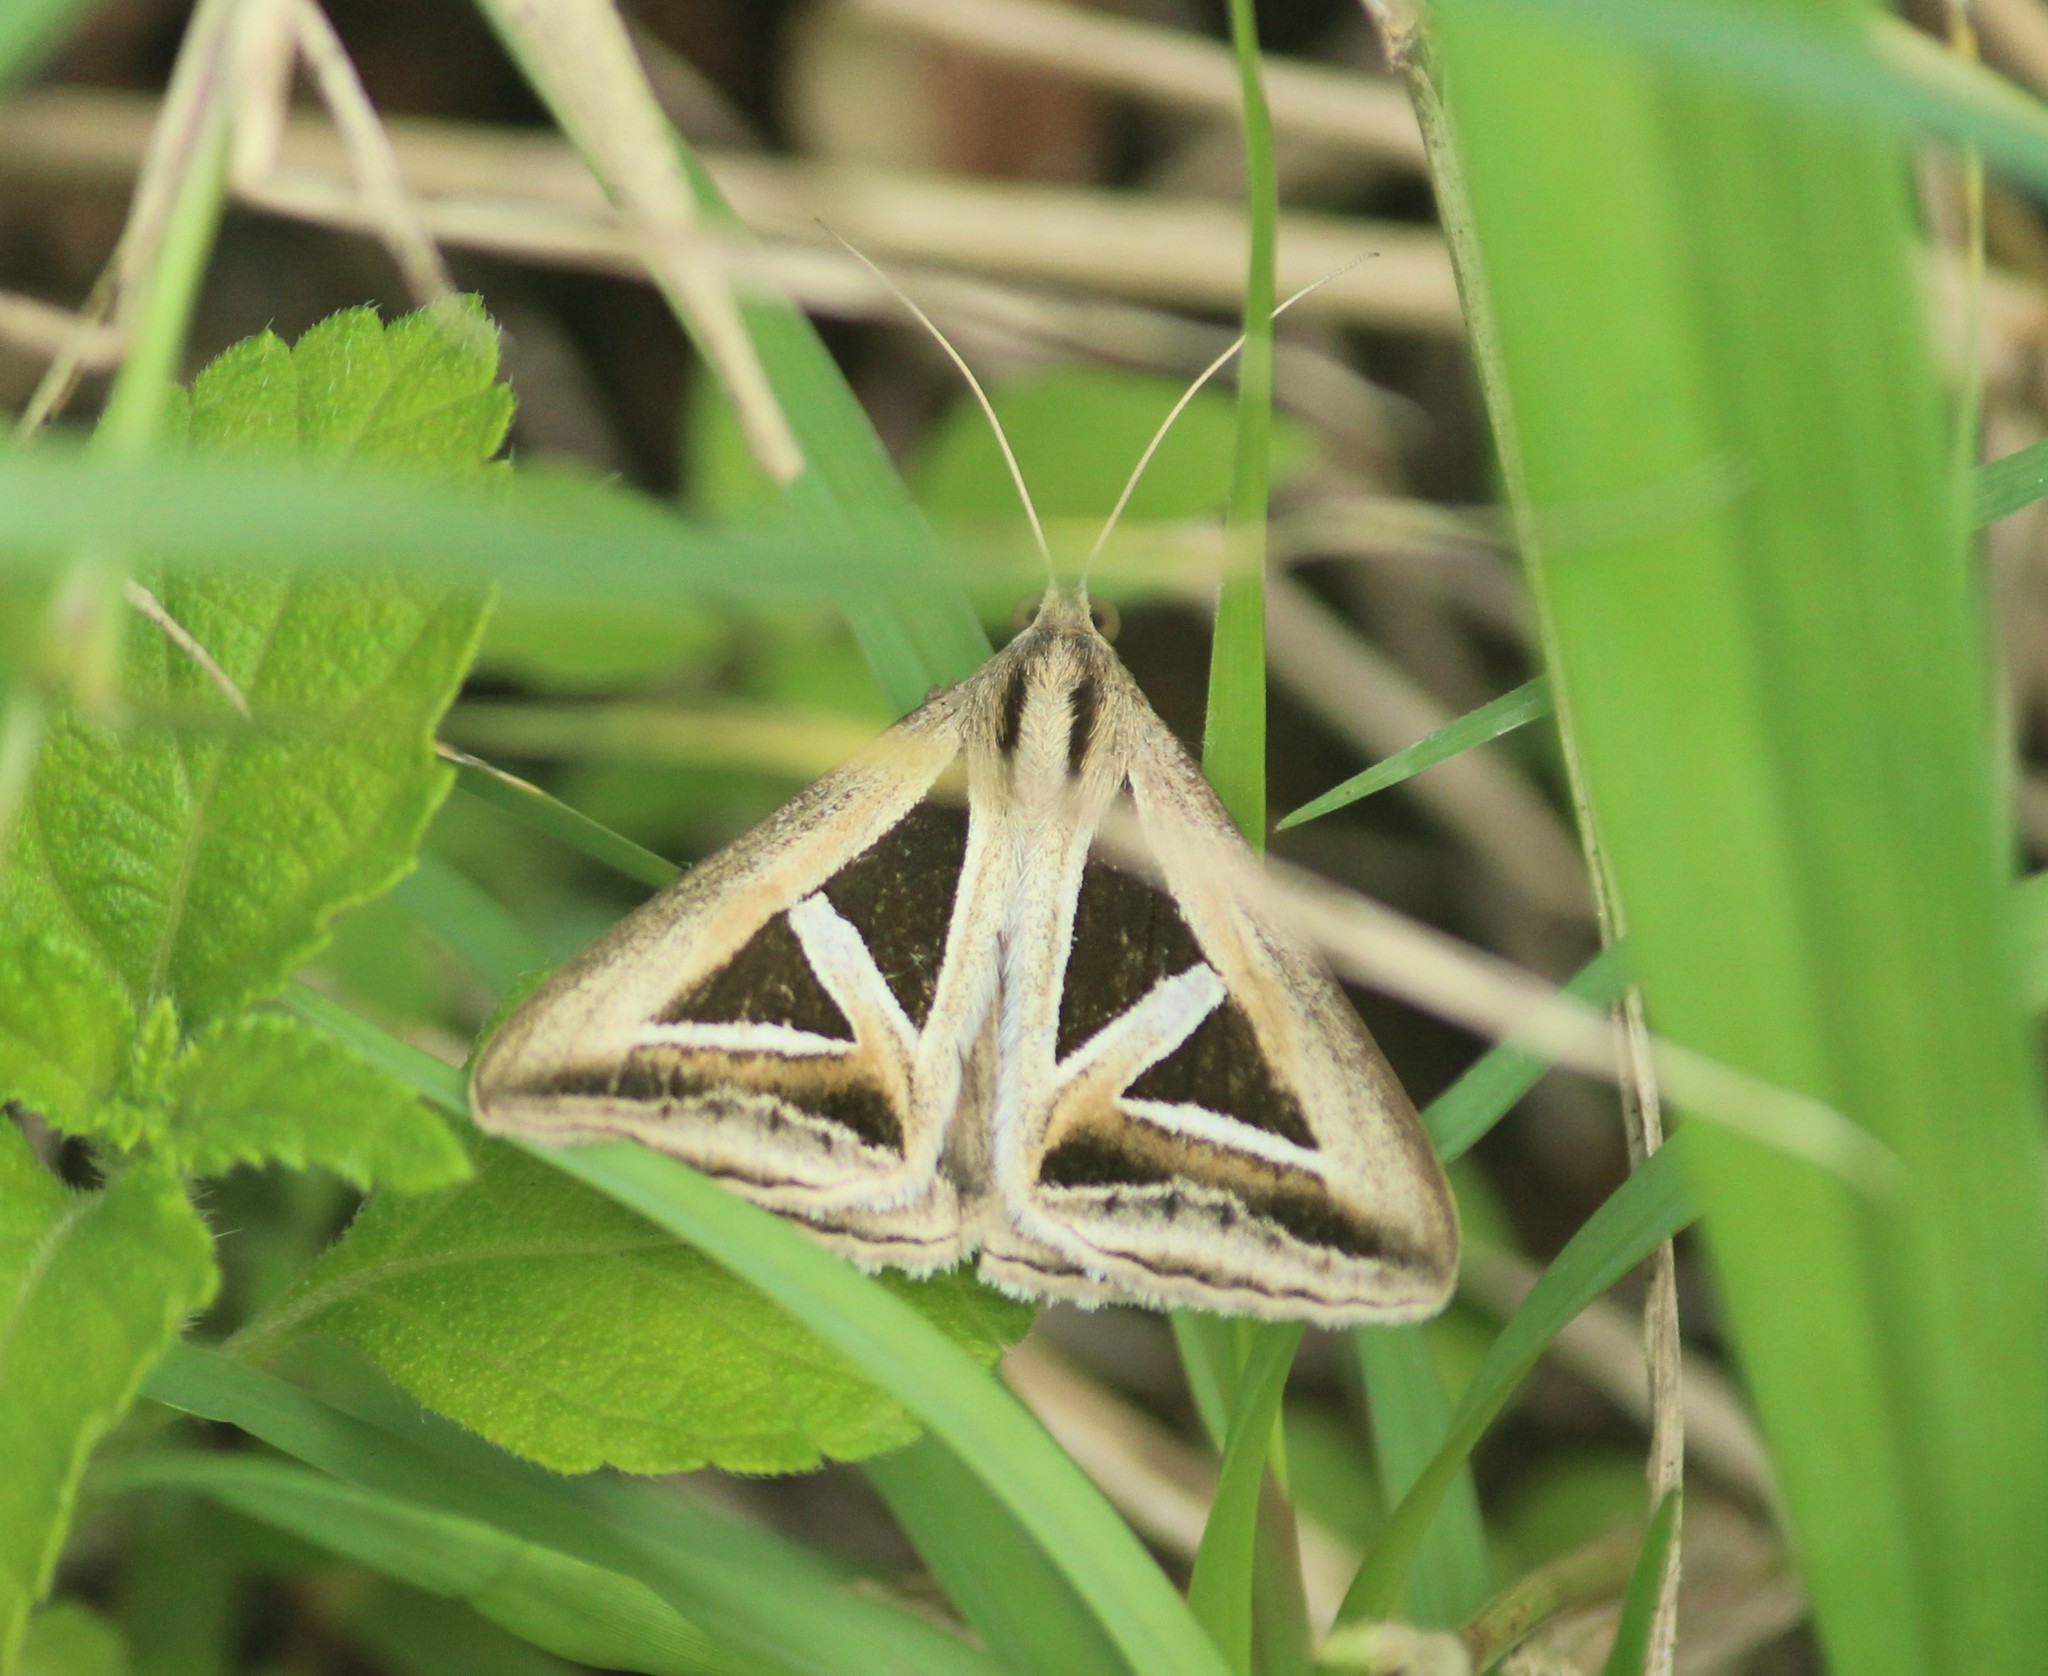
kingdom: Animalia
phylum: Arthropoda
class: Insecta
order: Lepidoptera
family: Erebidae
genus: Trigonodes
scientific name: Trigonodes hyppasia
